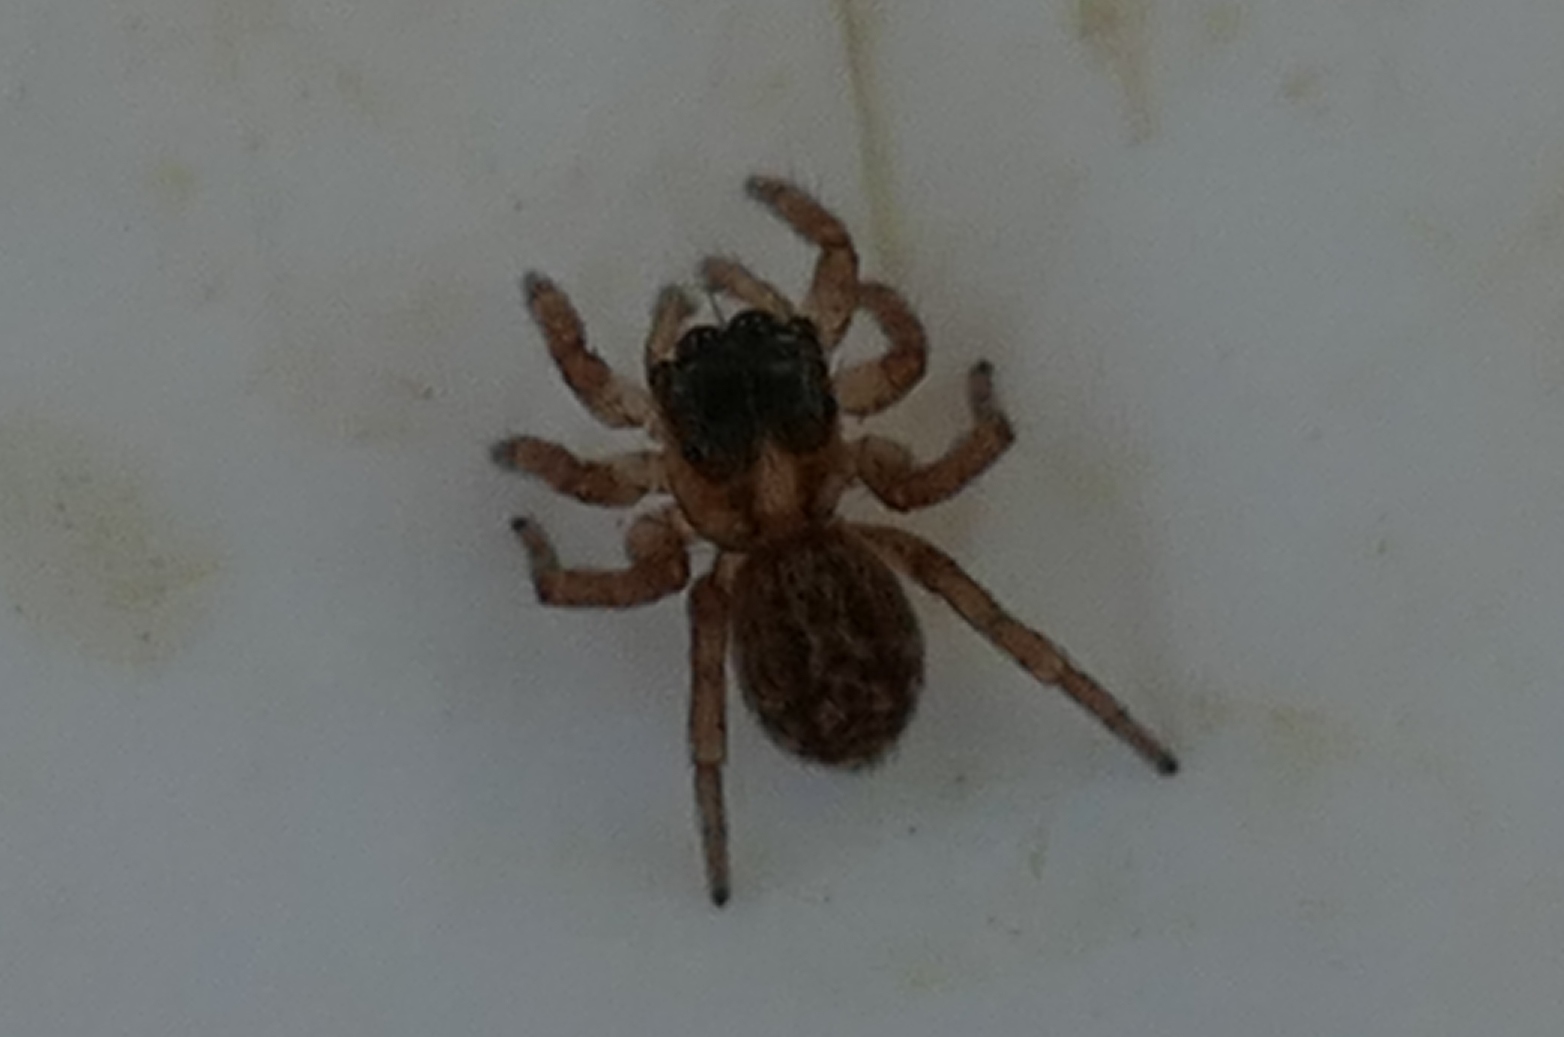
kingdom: Animalia
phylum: Arthropoda
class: Arachnida
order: Araneae
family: Salticidae
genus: Saitis
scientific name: Saitis barbipes
